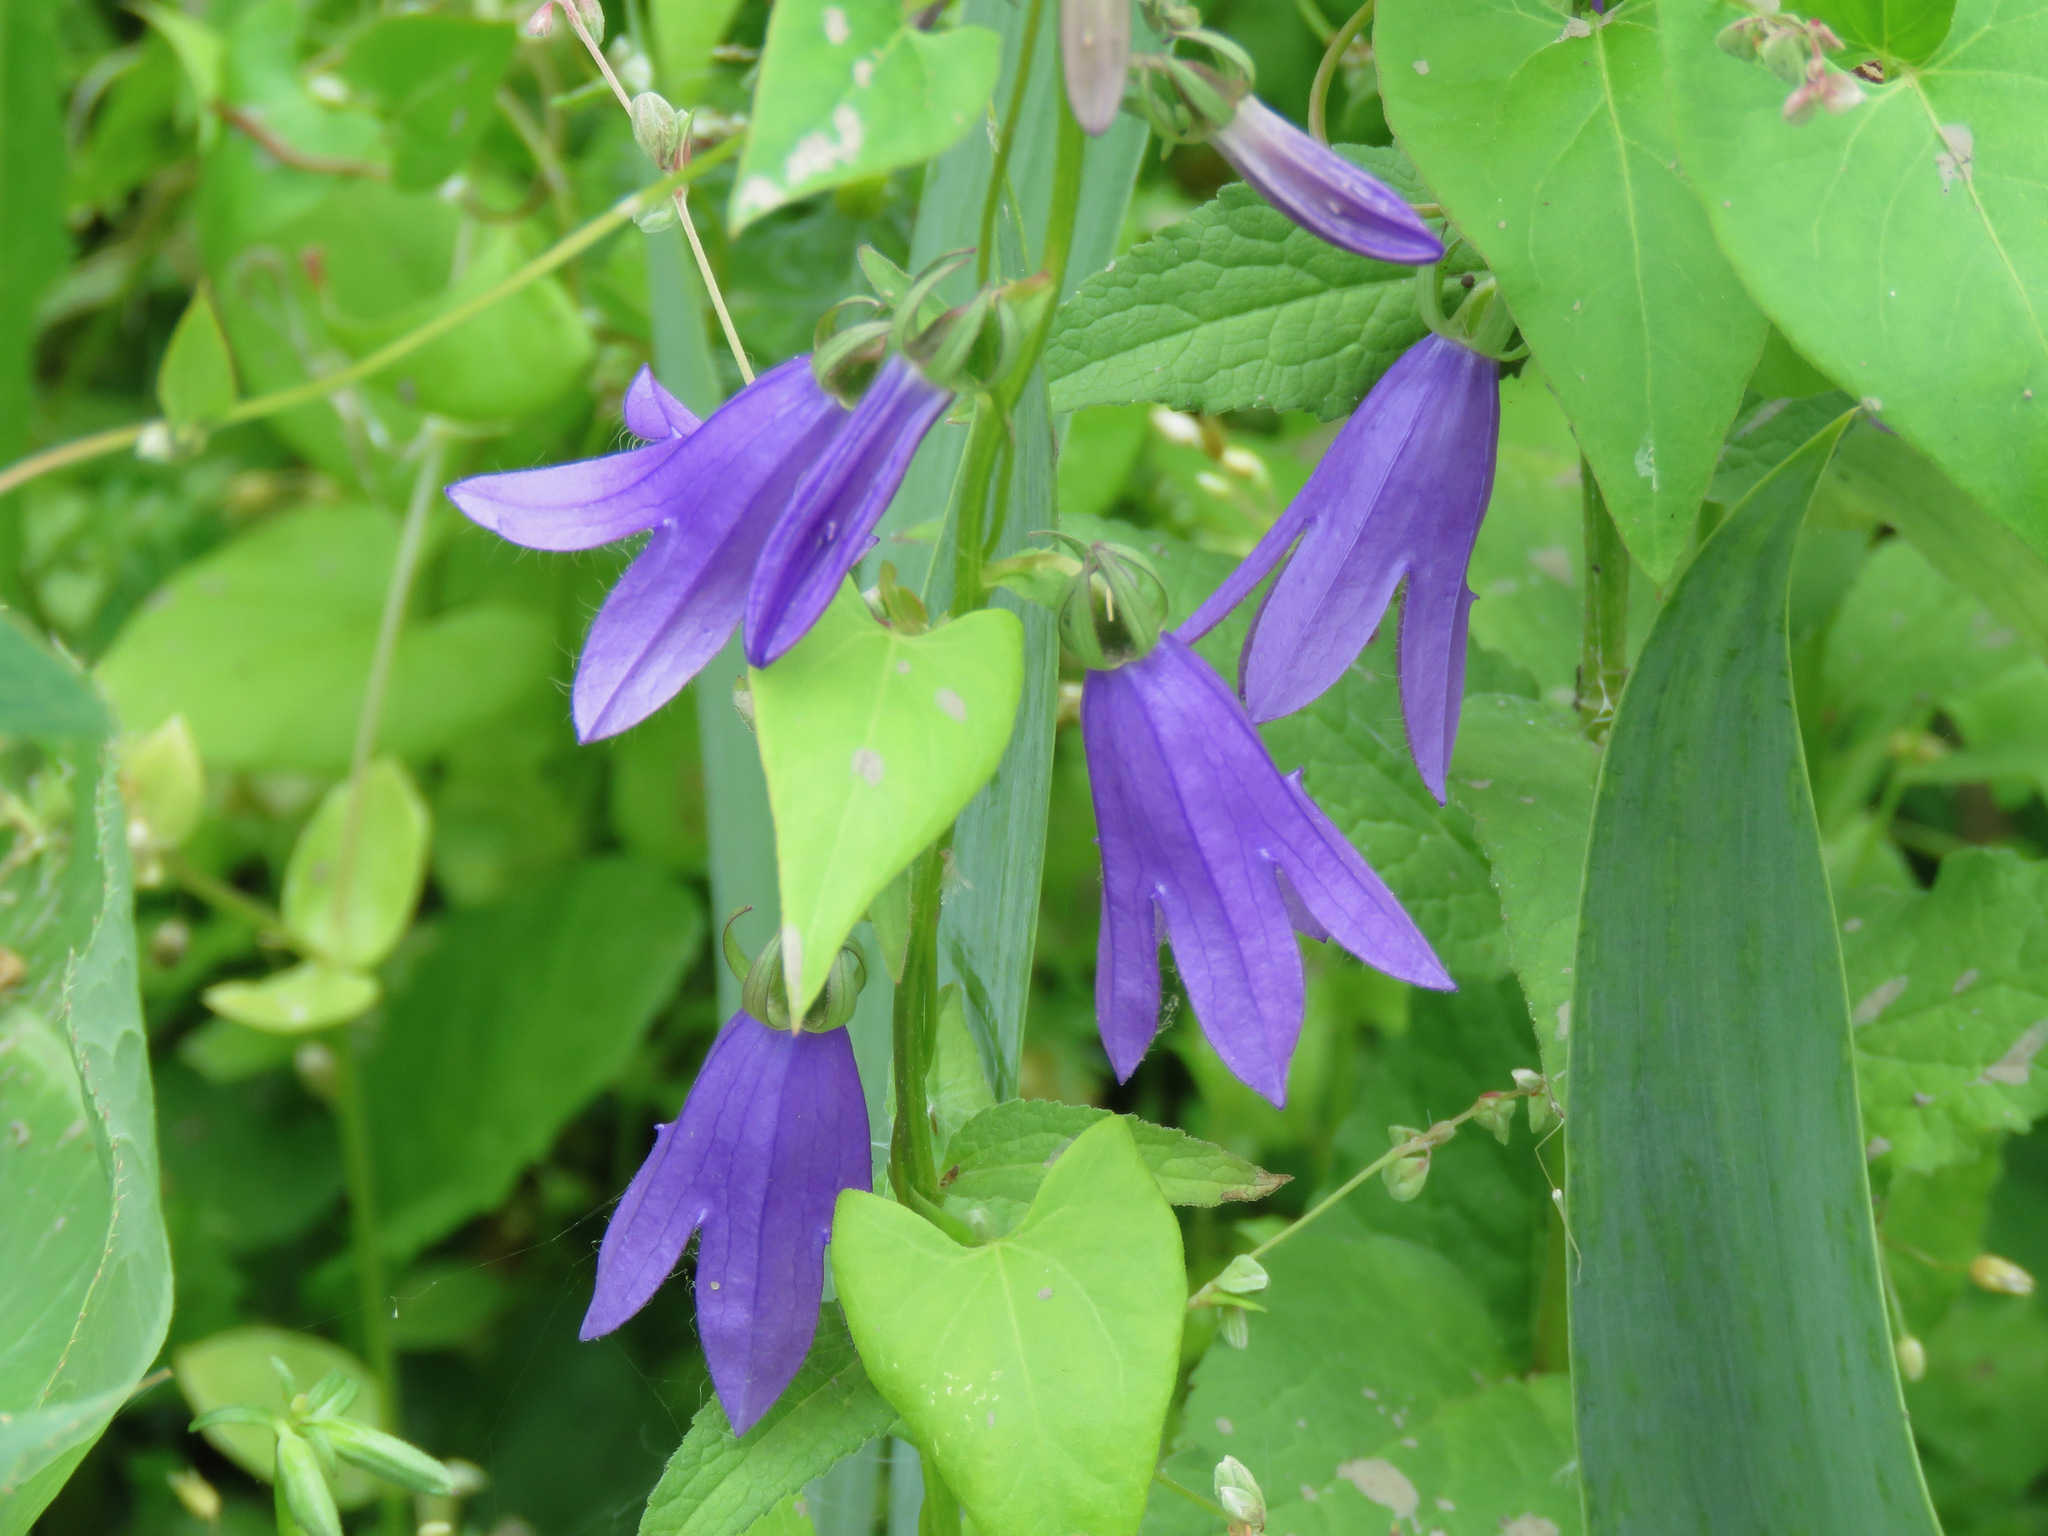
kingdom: Plantae
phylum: Tracheophyta
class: Magnoliopsida
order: Asterales
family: Campanulaceae
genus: Campanula
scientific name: Campanula rapunculoides
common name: Creeping bellflower
